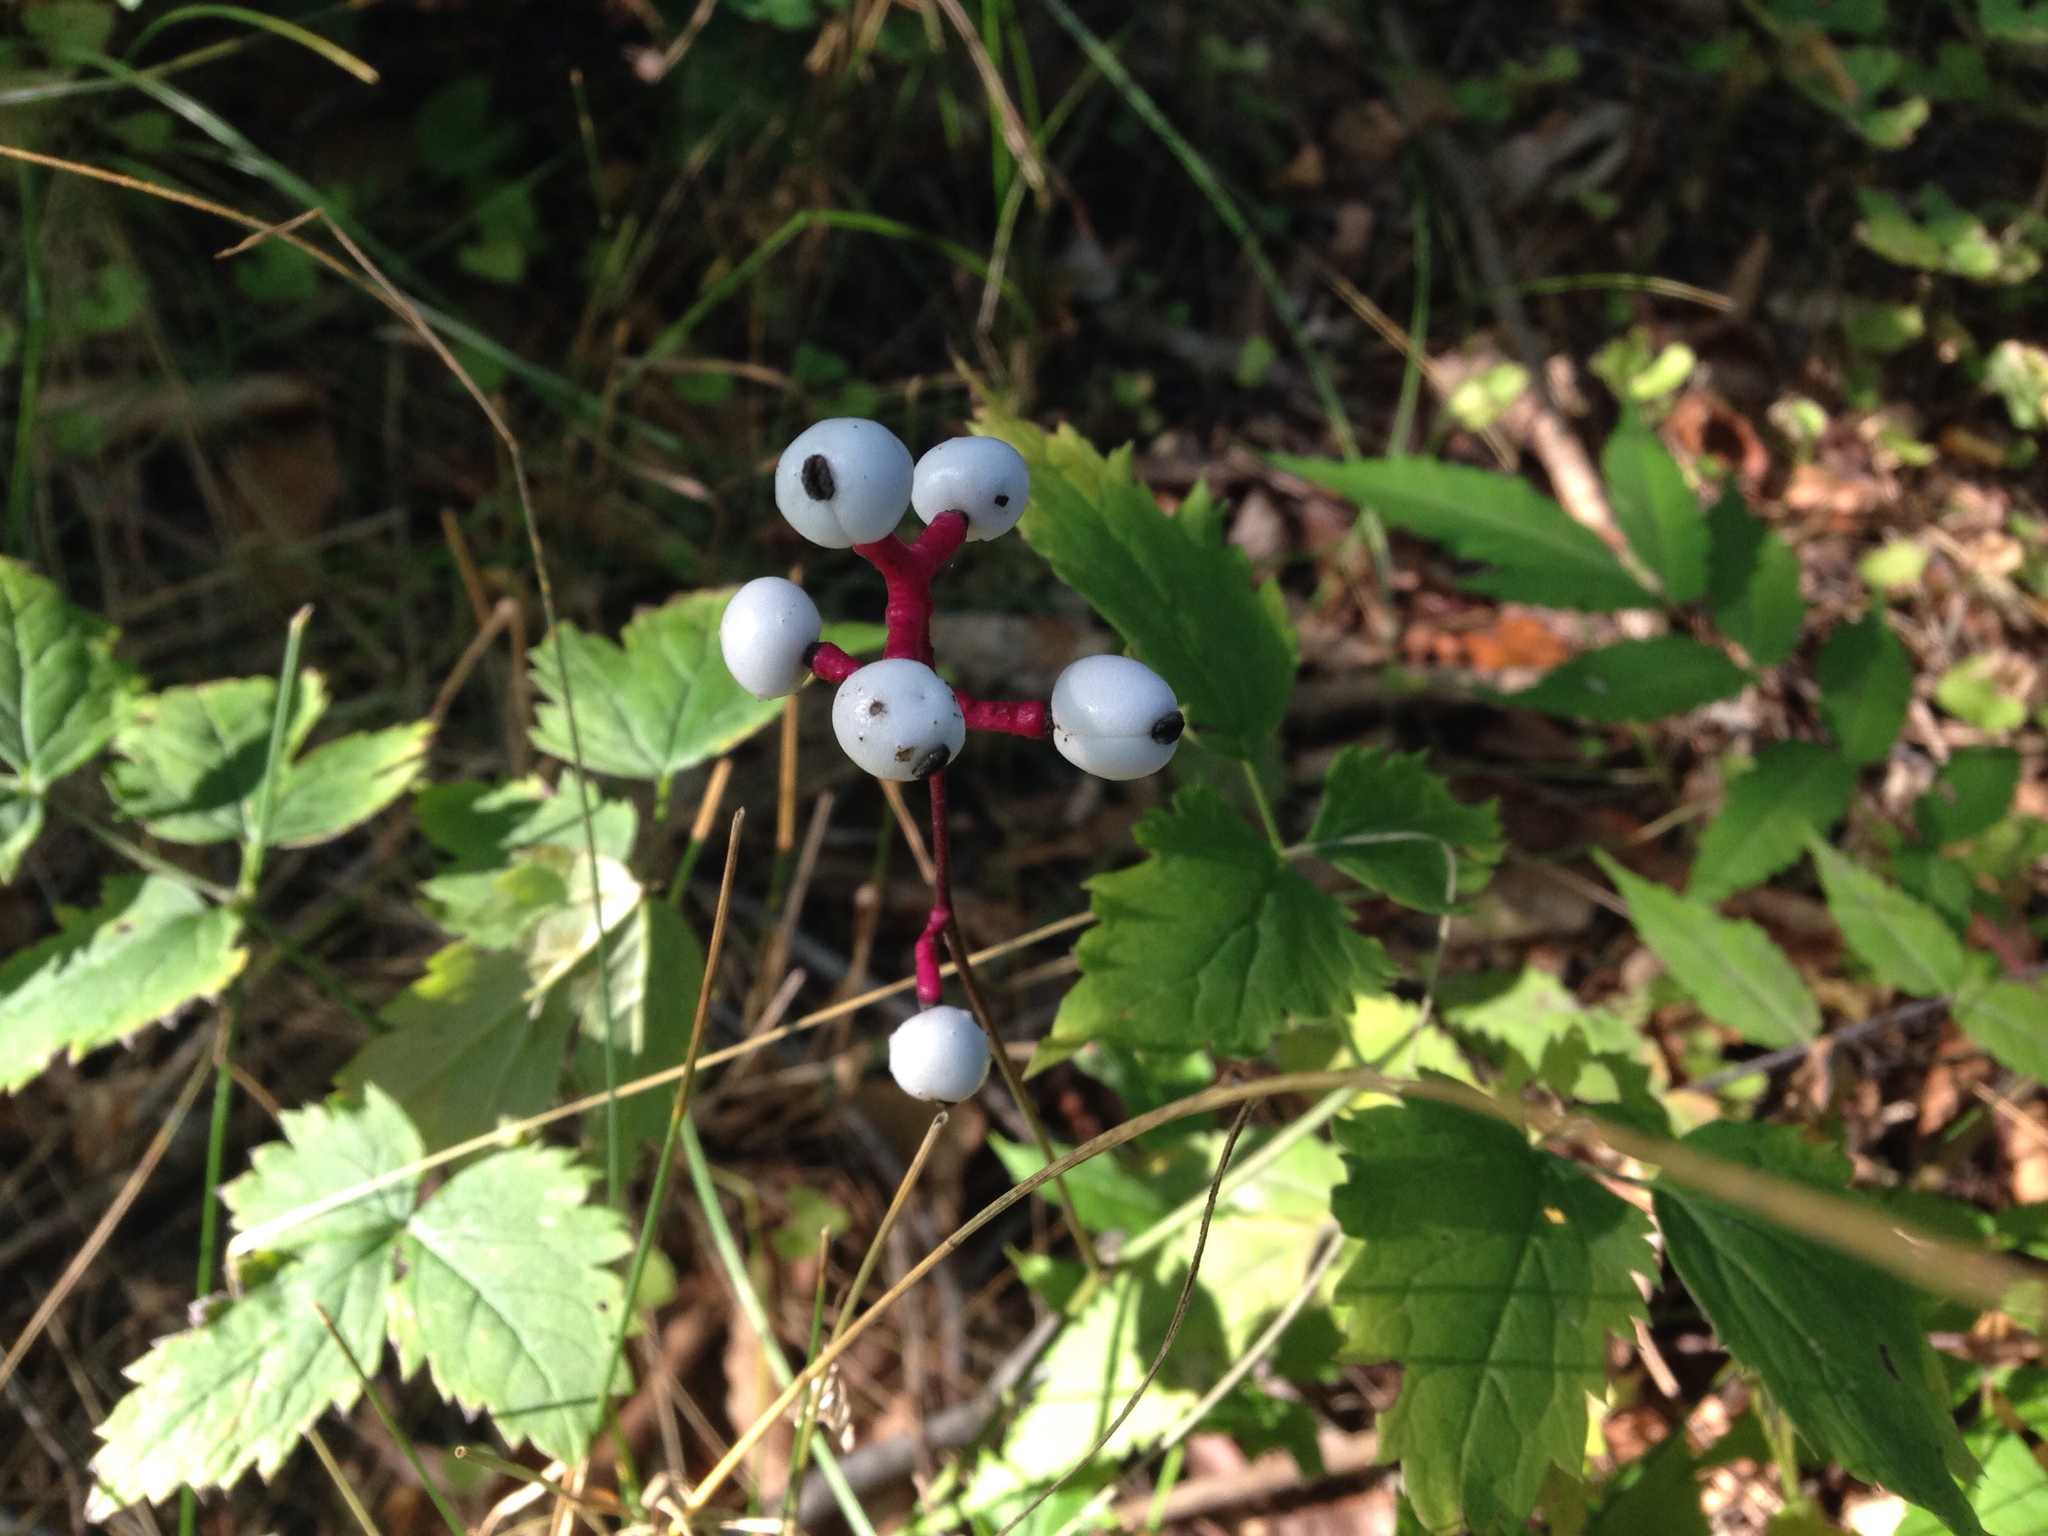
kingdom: Plantae
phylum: Tracheophyta
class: Magnoliopsida
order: Ranunculales
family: Ranunculaceae
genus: Actaea
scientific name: Actaea pachypoda
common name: Doll's-eyes
